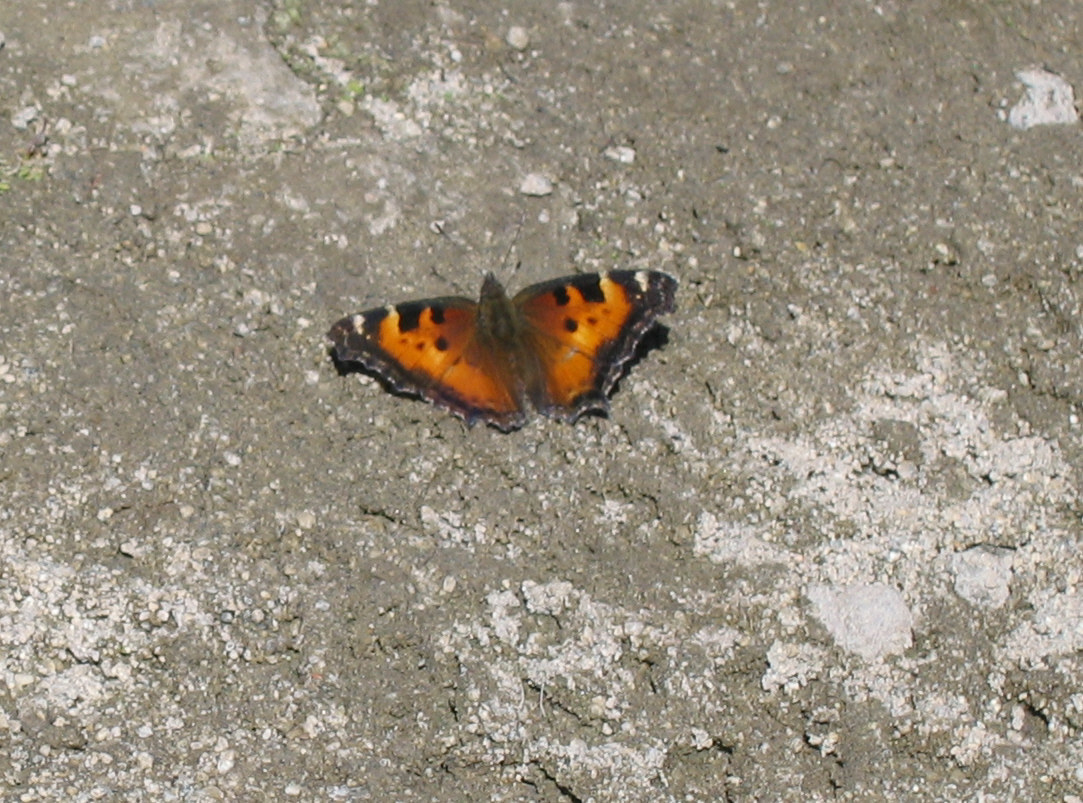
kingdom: Animalia
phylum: Arthropoda
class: Insecta
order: Lepidoptera
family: Nymphalidae
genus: Nymphalis
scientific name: Nymphalis californica
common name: California tortoiseshell
